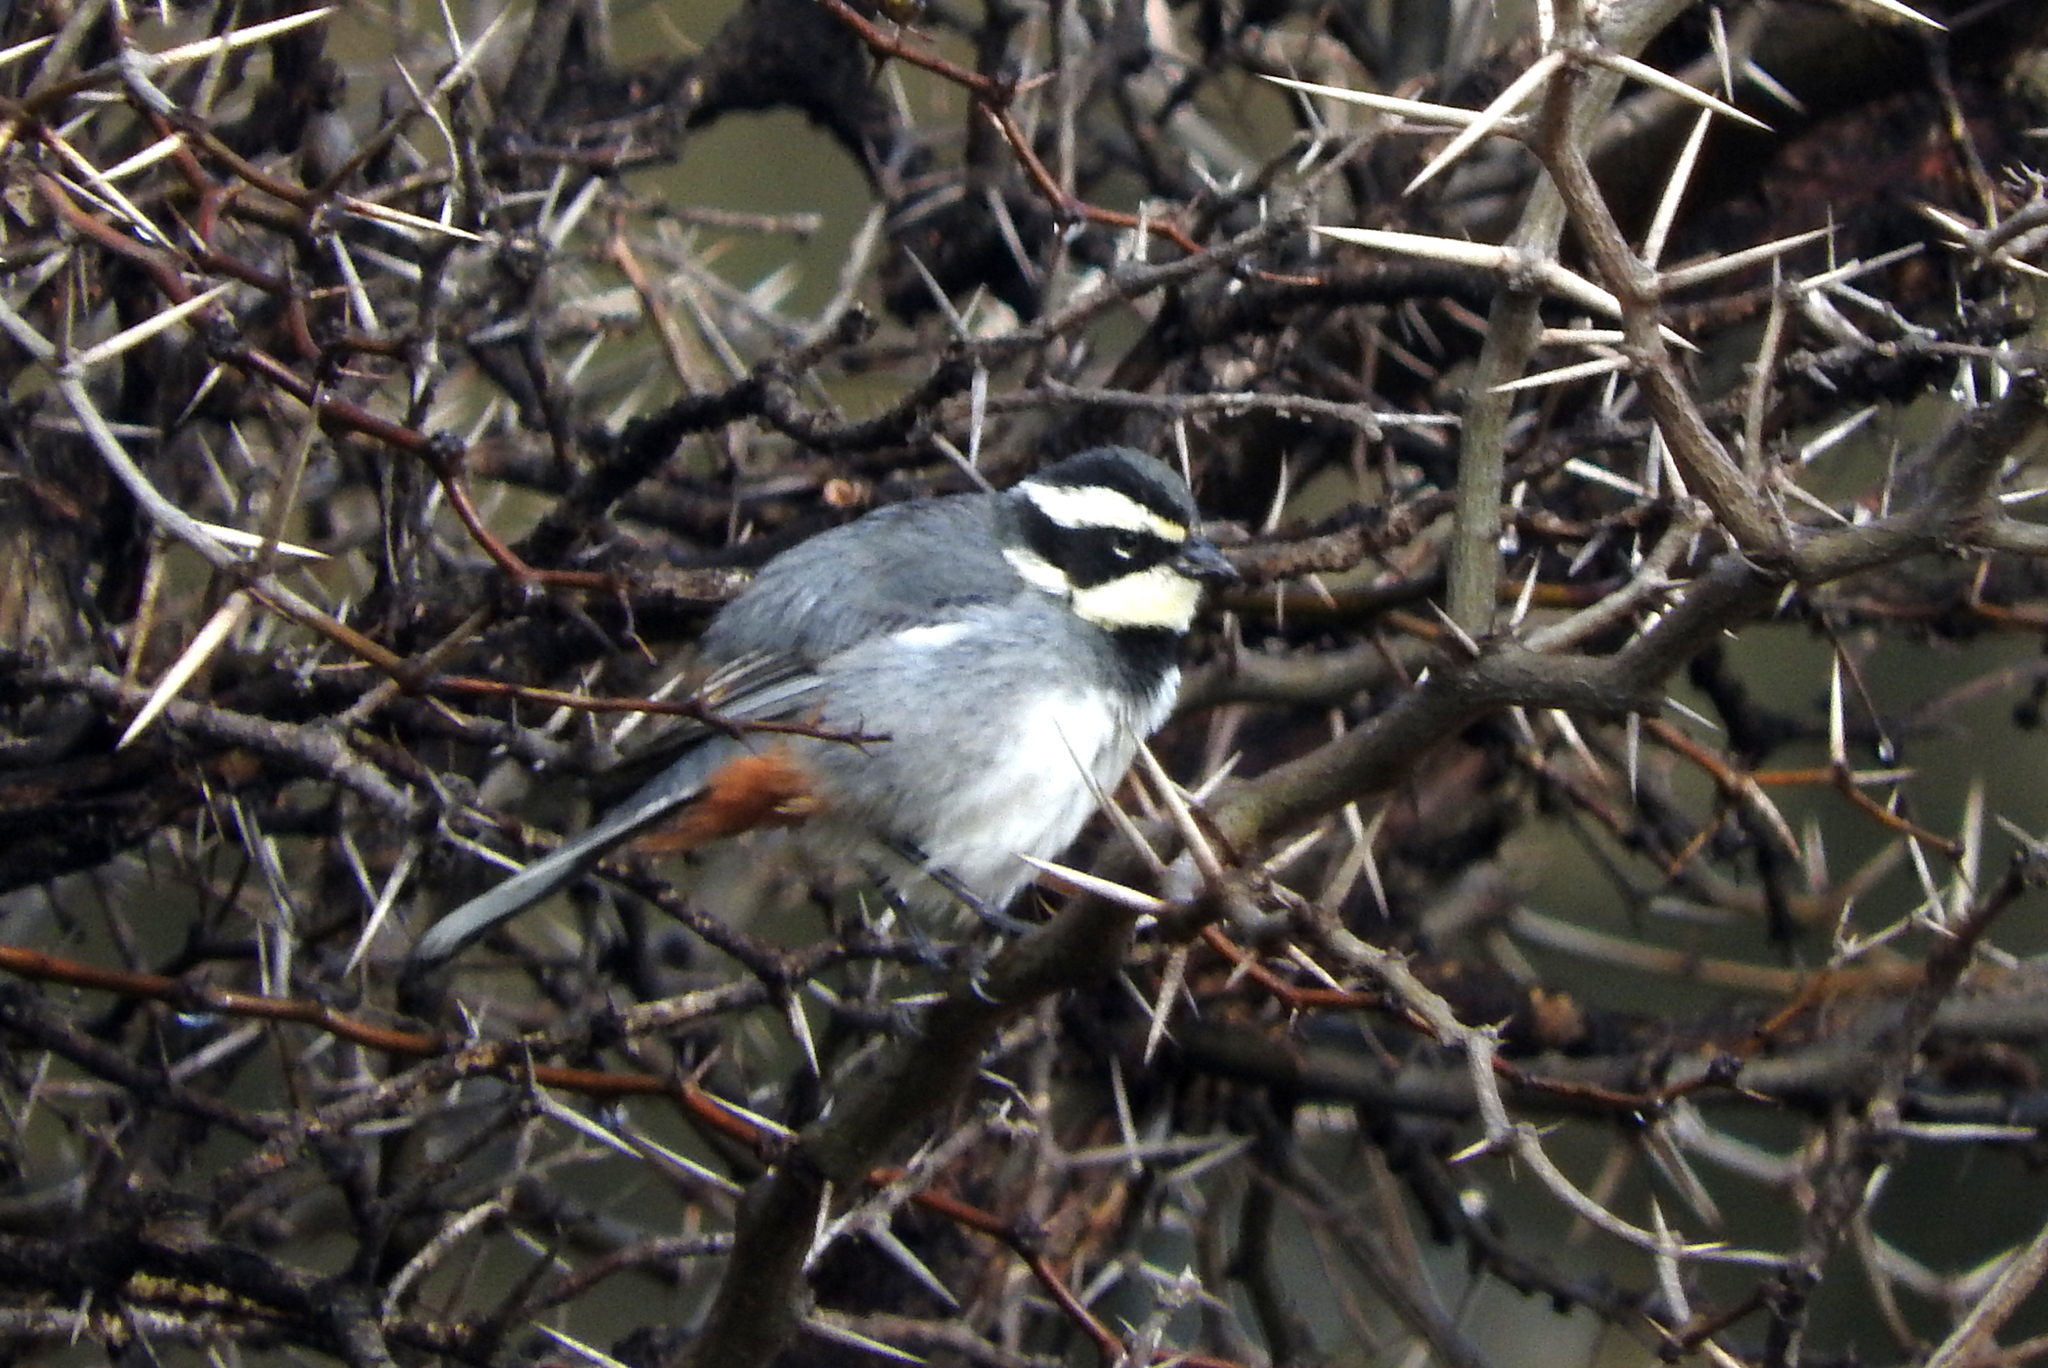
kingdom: Animalia
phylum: Chordata
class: Aves
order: Passeriformes
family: Thraupidae
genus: Microspingus
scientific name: Microspingus torquatus
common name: Ringed warbling-finch
